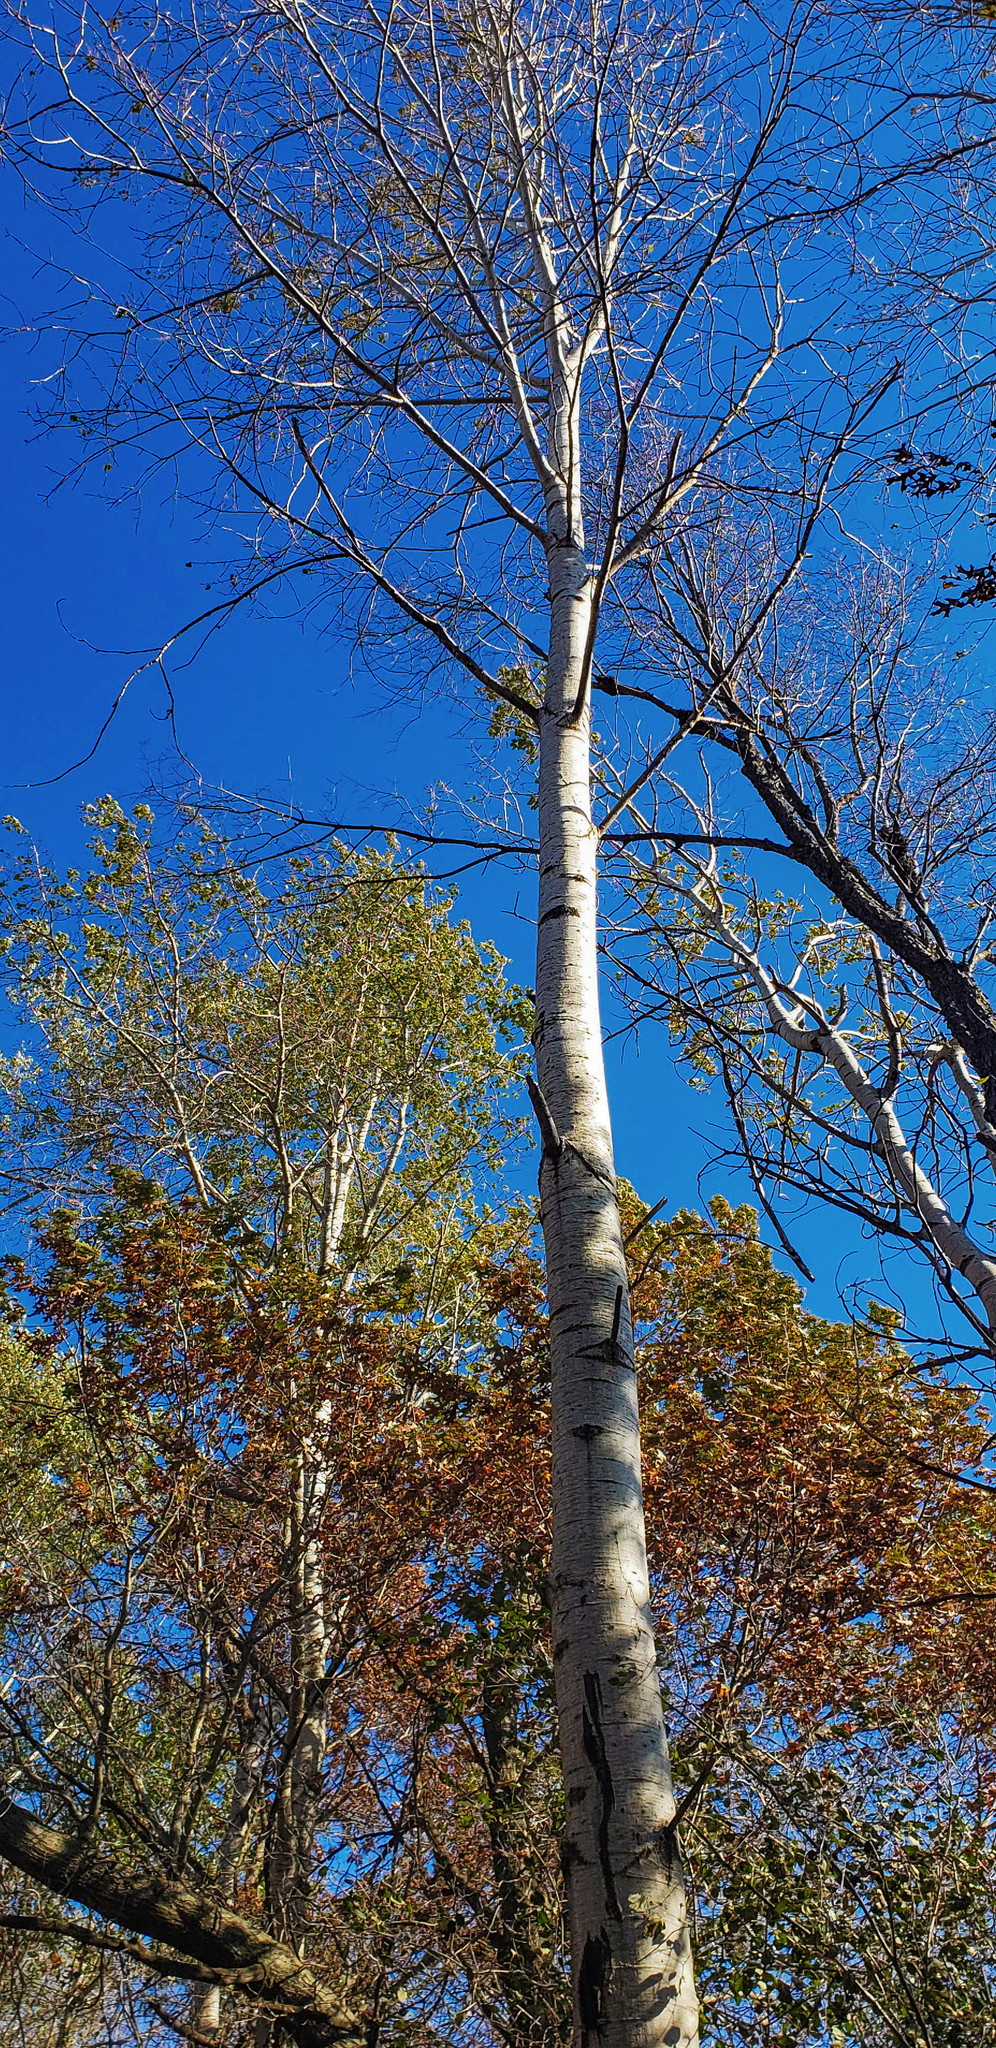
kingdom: Plantae
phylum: Tracheophyta
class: Magnoliopsida
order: Malpighiales
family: Salicaceae
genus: Populus
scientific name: Populus tremuloides
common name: Quaking aspen
